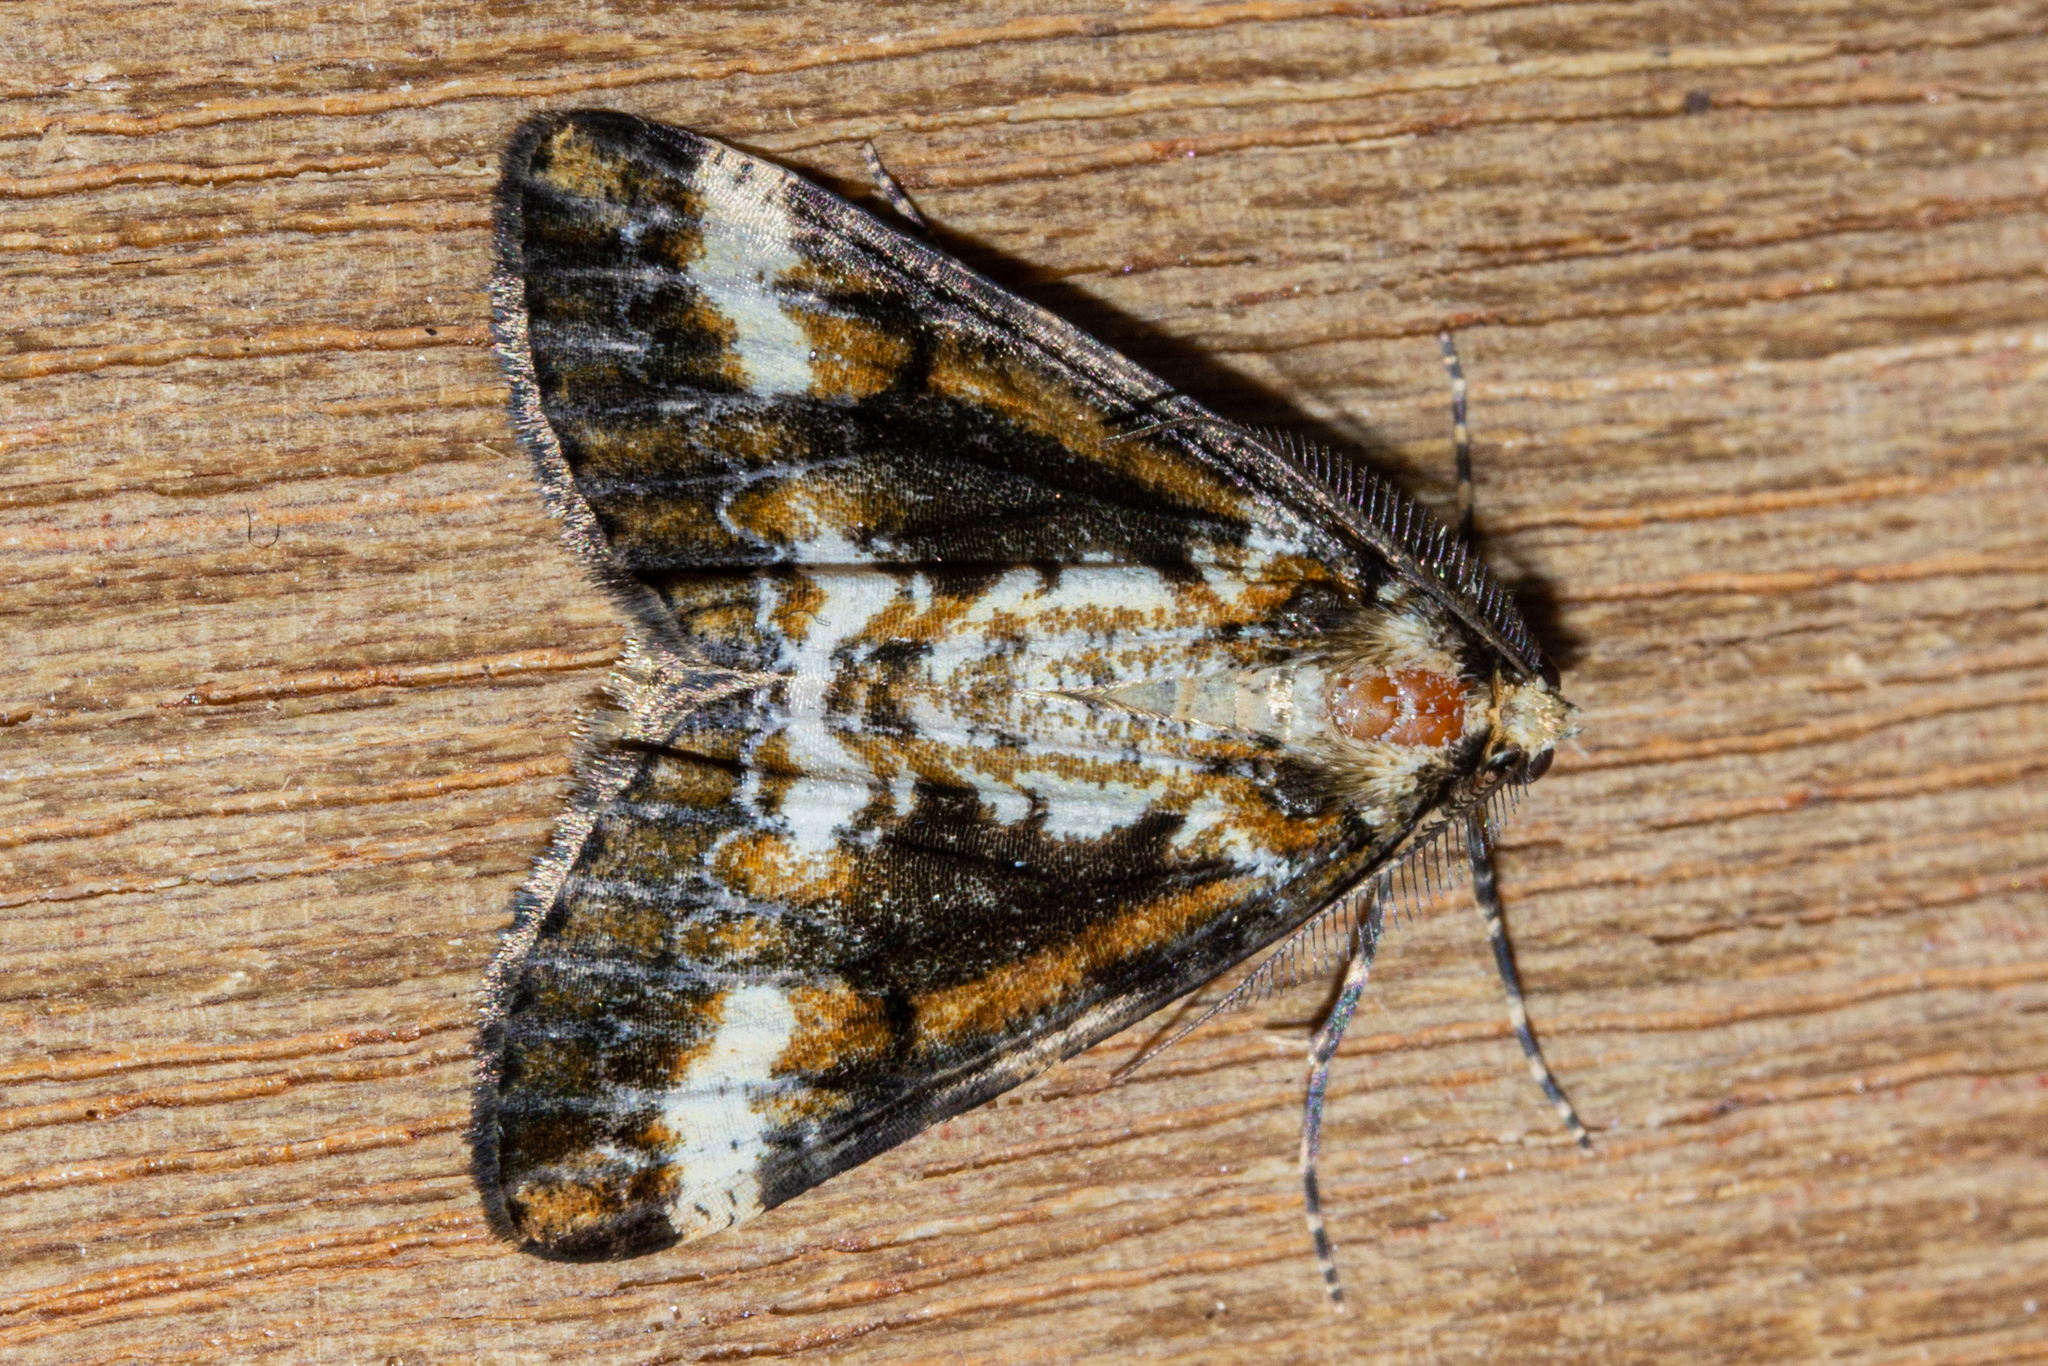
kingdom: Animalia
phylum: Arthropoda
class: Insecta
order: Lepidoptera
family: Geometridae
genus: Pseudocoremia
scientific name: Pseudocoremia leucelaea
